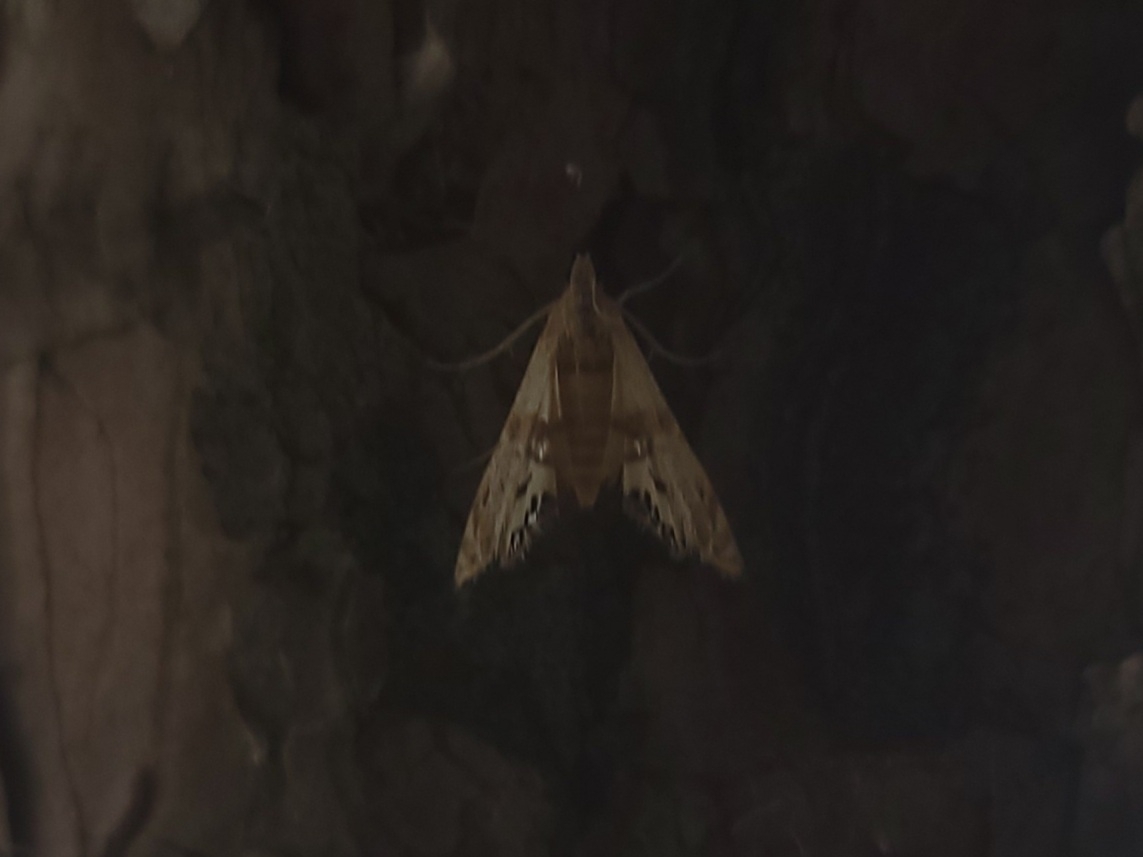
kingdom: Animalia
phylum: Arthropoda
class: Insecta
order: Lepidoptera
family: Crambidae
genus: Petrophila
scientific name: Petrophila bifascialis
